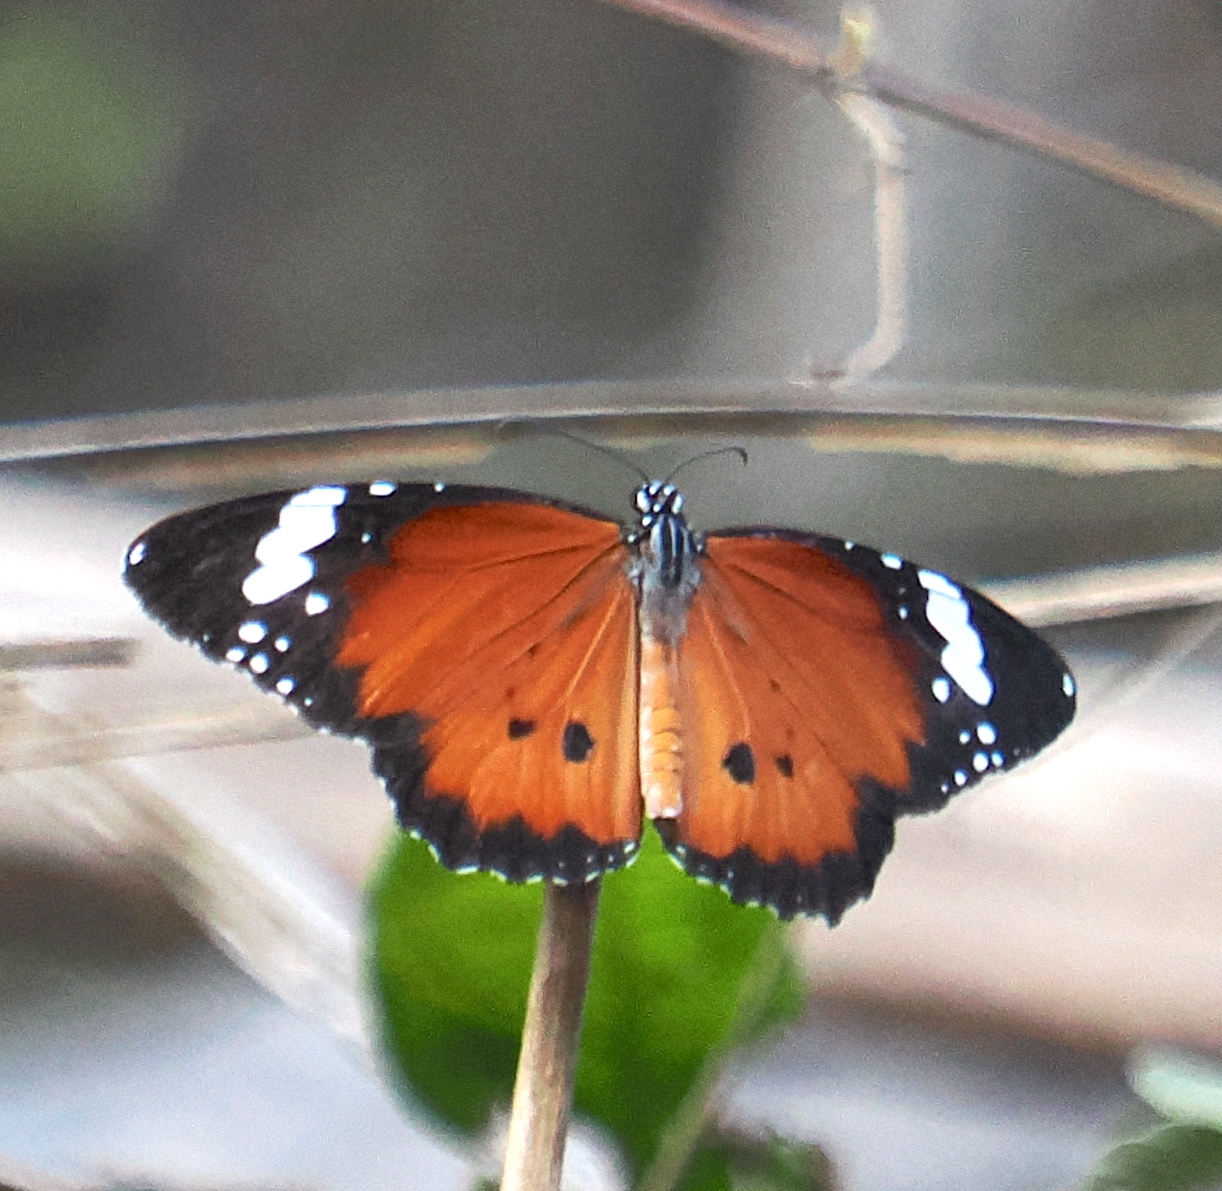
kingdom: Animalia
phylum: Arthropoda
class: Insecta
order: Lepidoptera
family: Nymphalidae
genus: Danaus
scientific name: Danaus chrysippus
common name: Plain tiger
